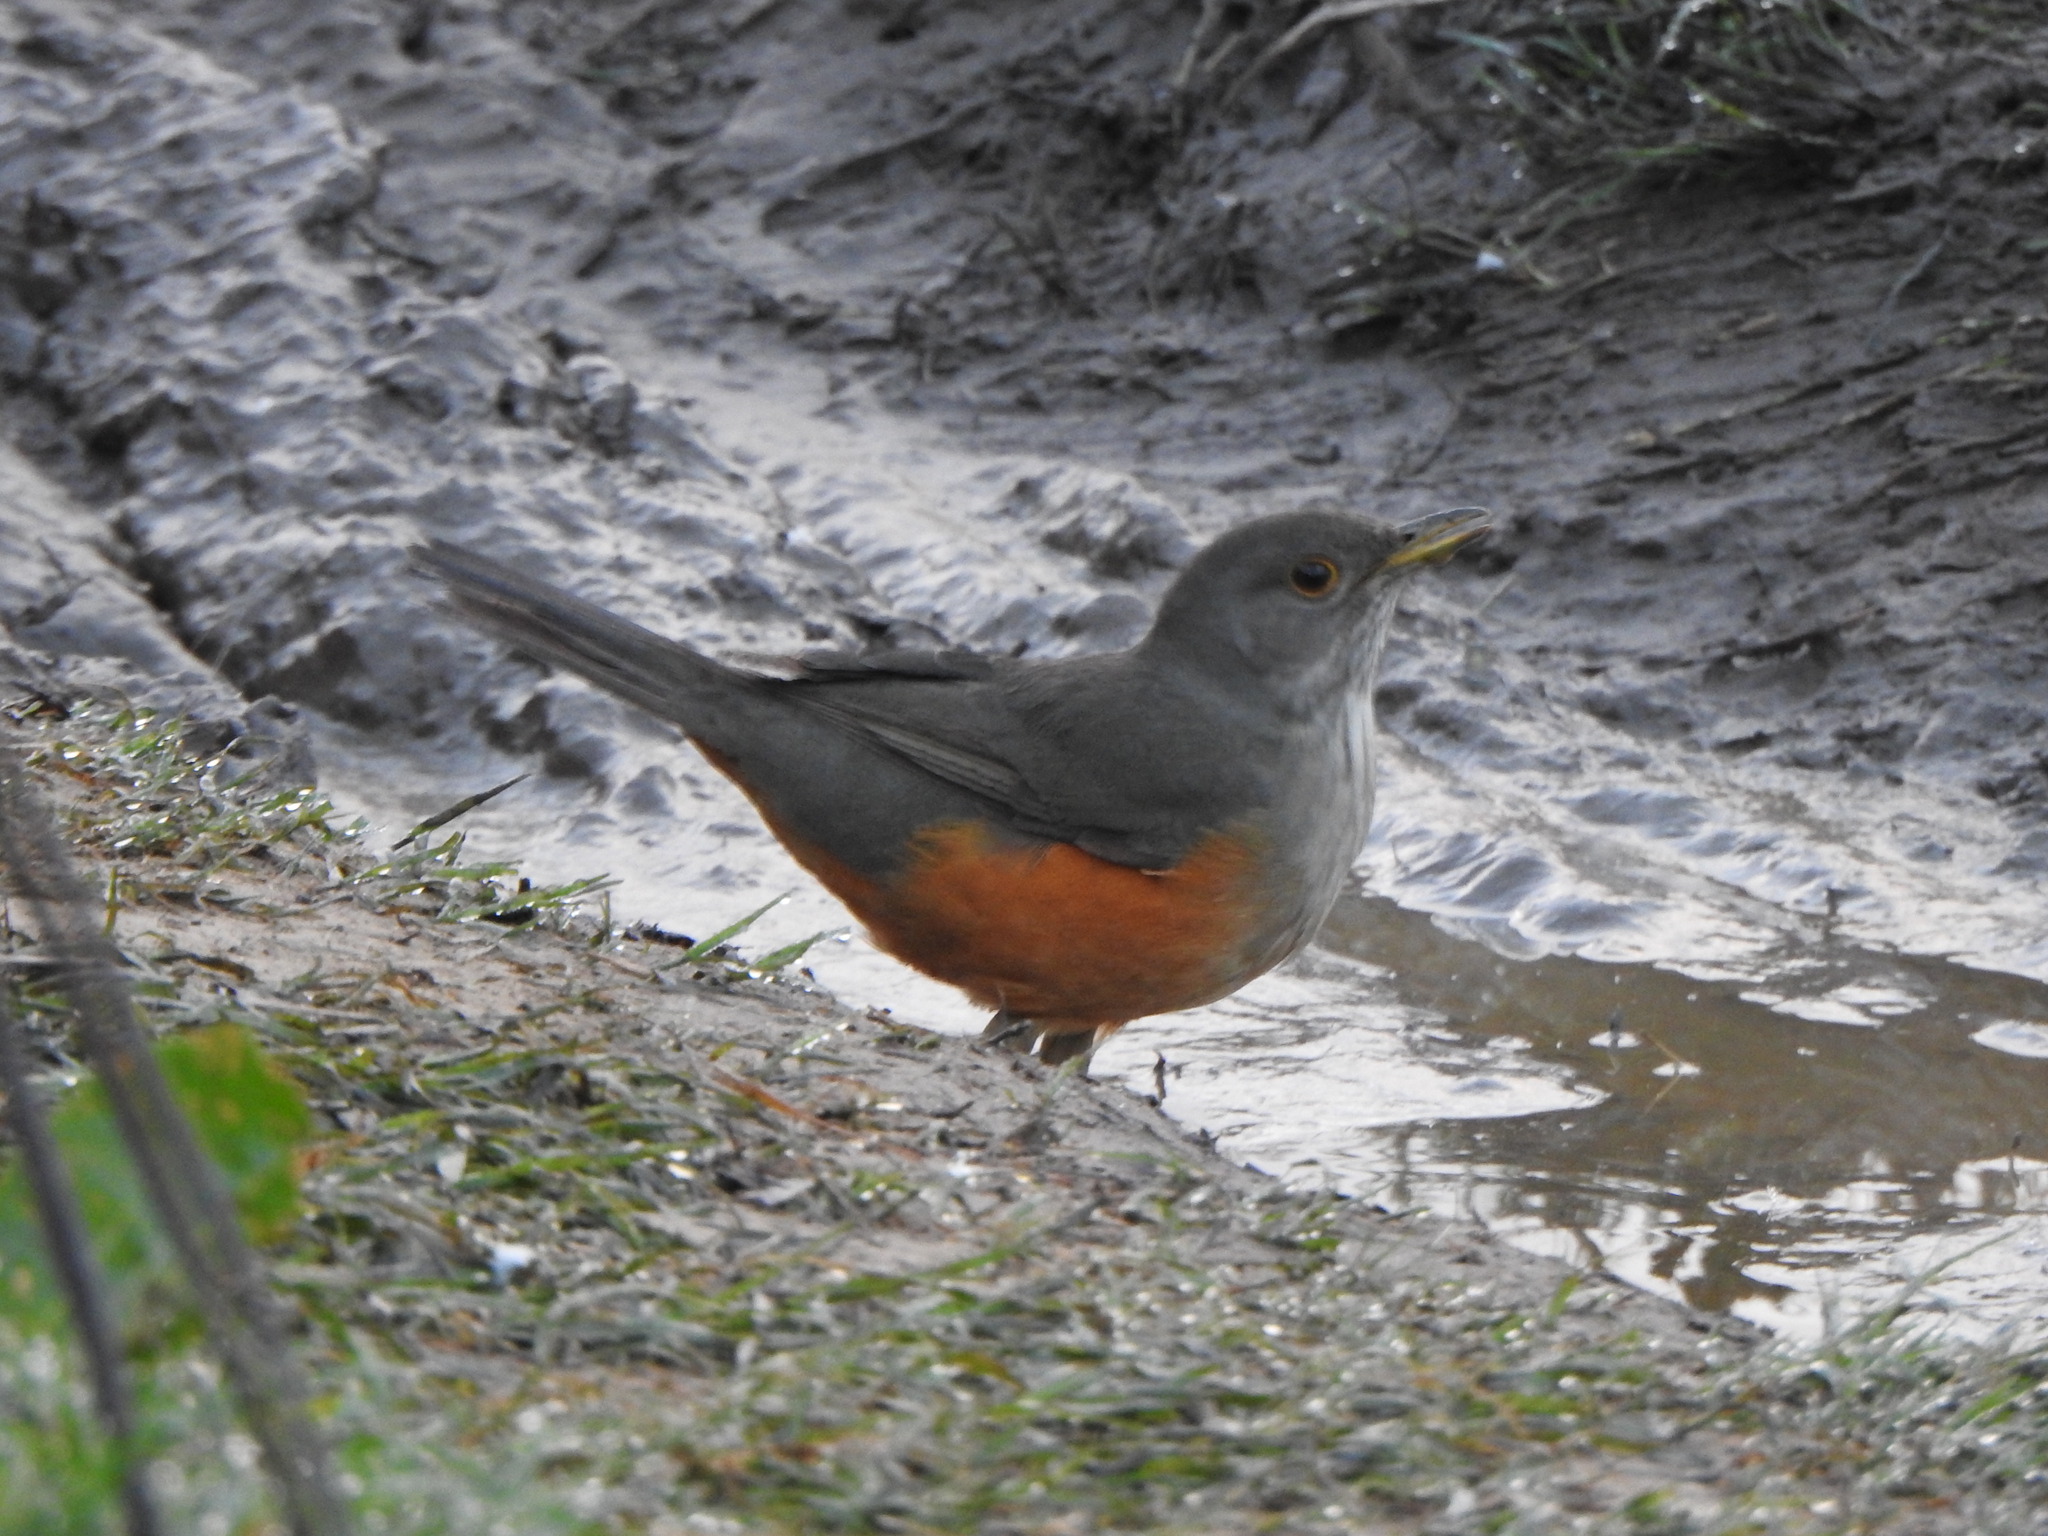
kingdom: Animalia
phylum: Chordata
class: Aves
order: Passeriformes
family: Turdidae
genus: Turdus
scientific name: Turdus rufiventris
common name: Rufous-bellied thrush
